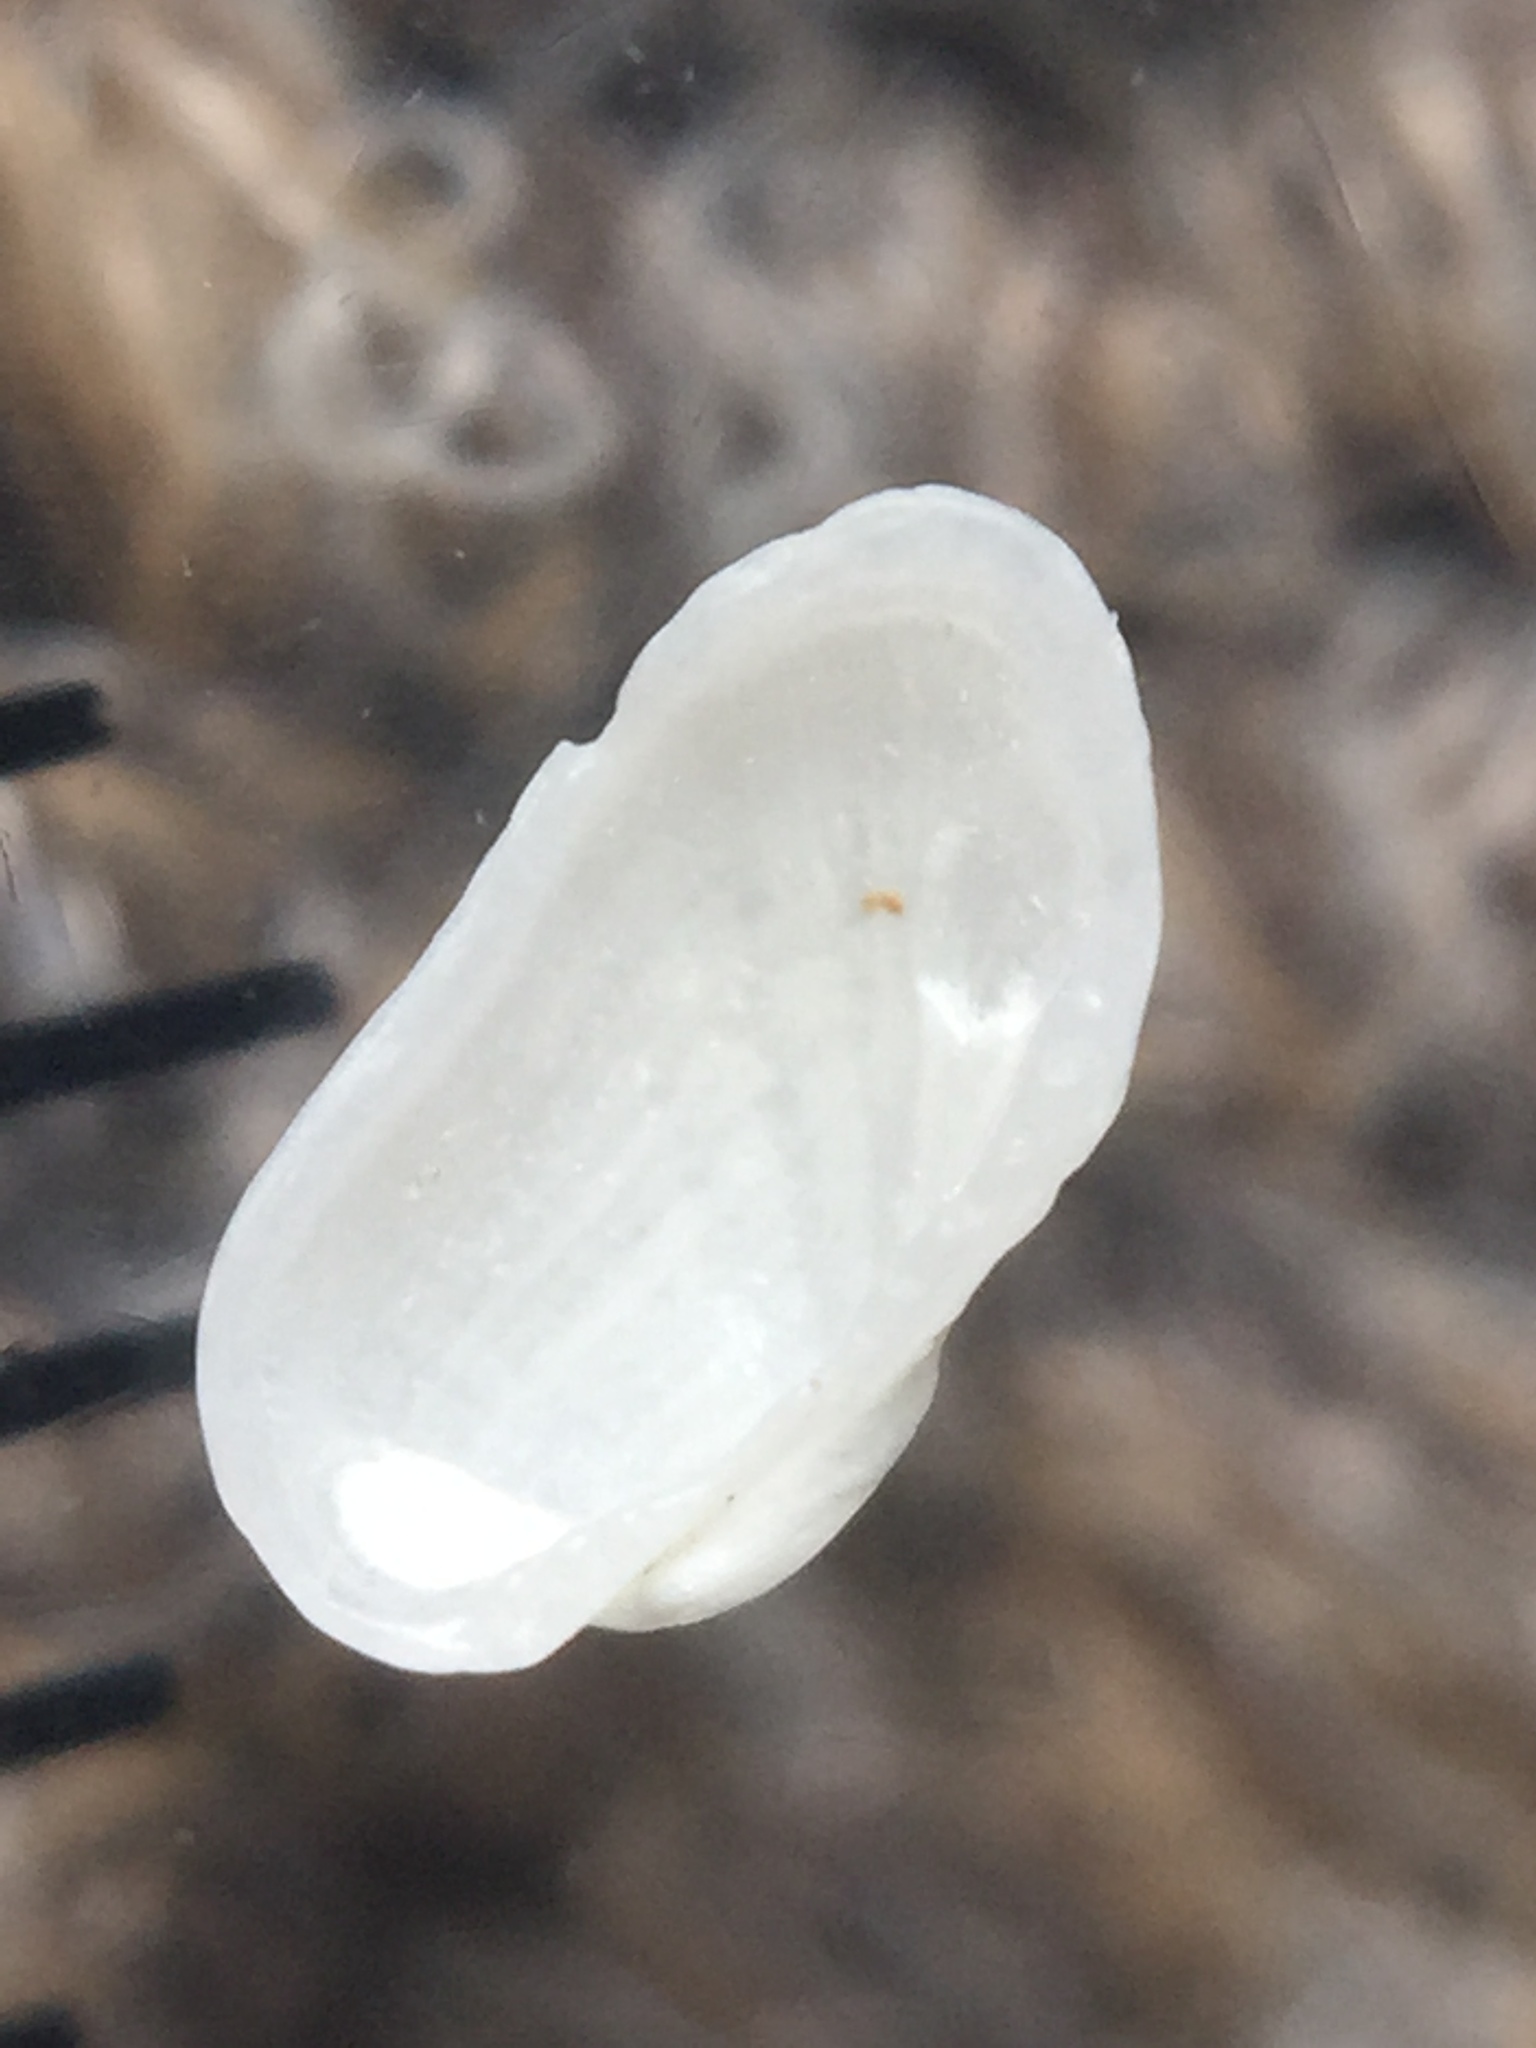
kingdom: Animalia
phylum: Mollusca
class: Bivalvia
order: Arcida
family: Arcidae
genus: Acar
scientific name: Acar sandersonae
